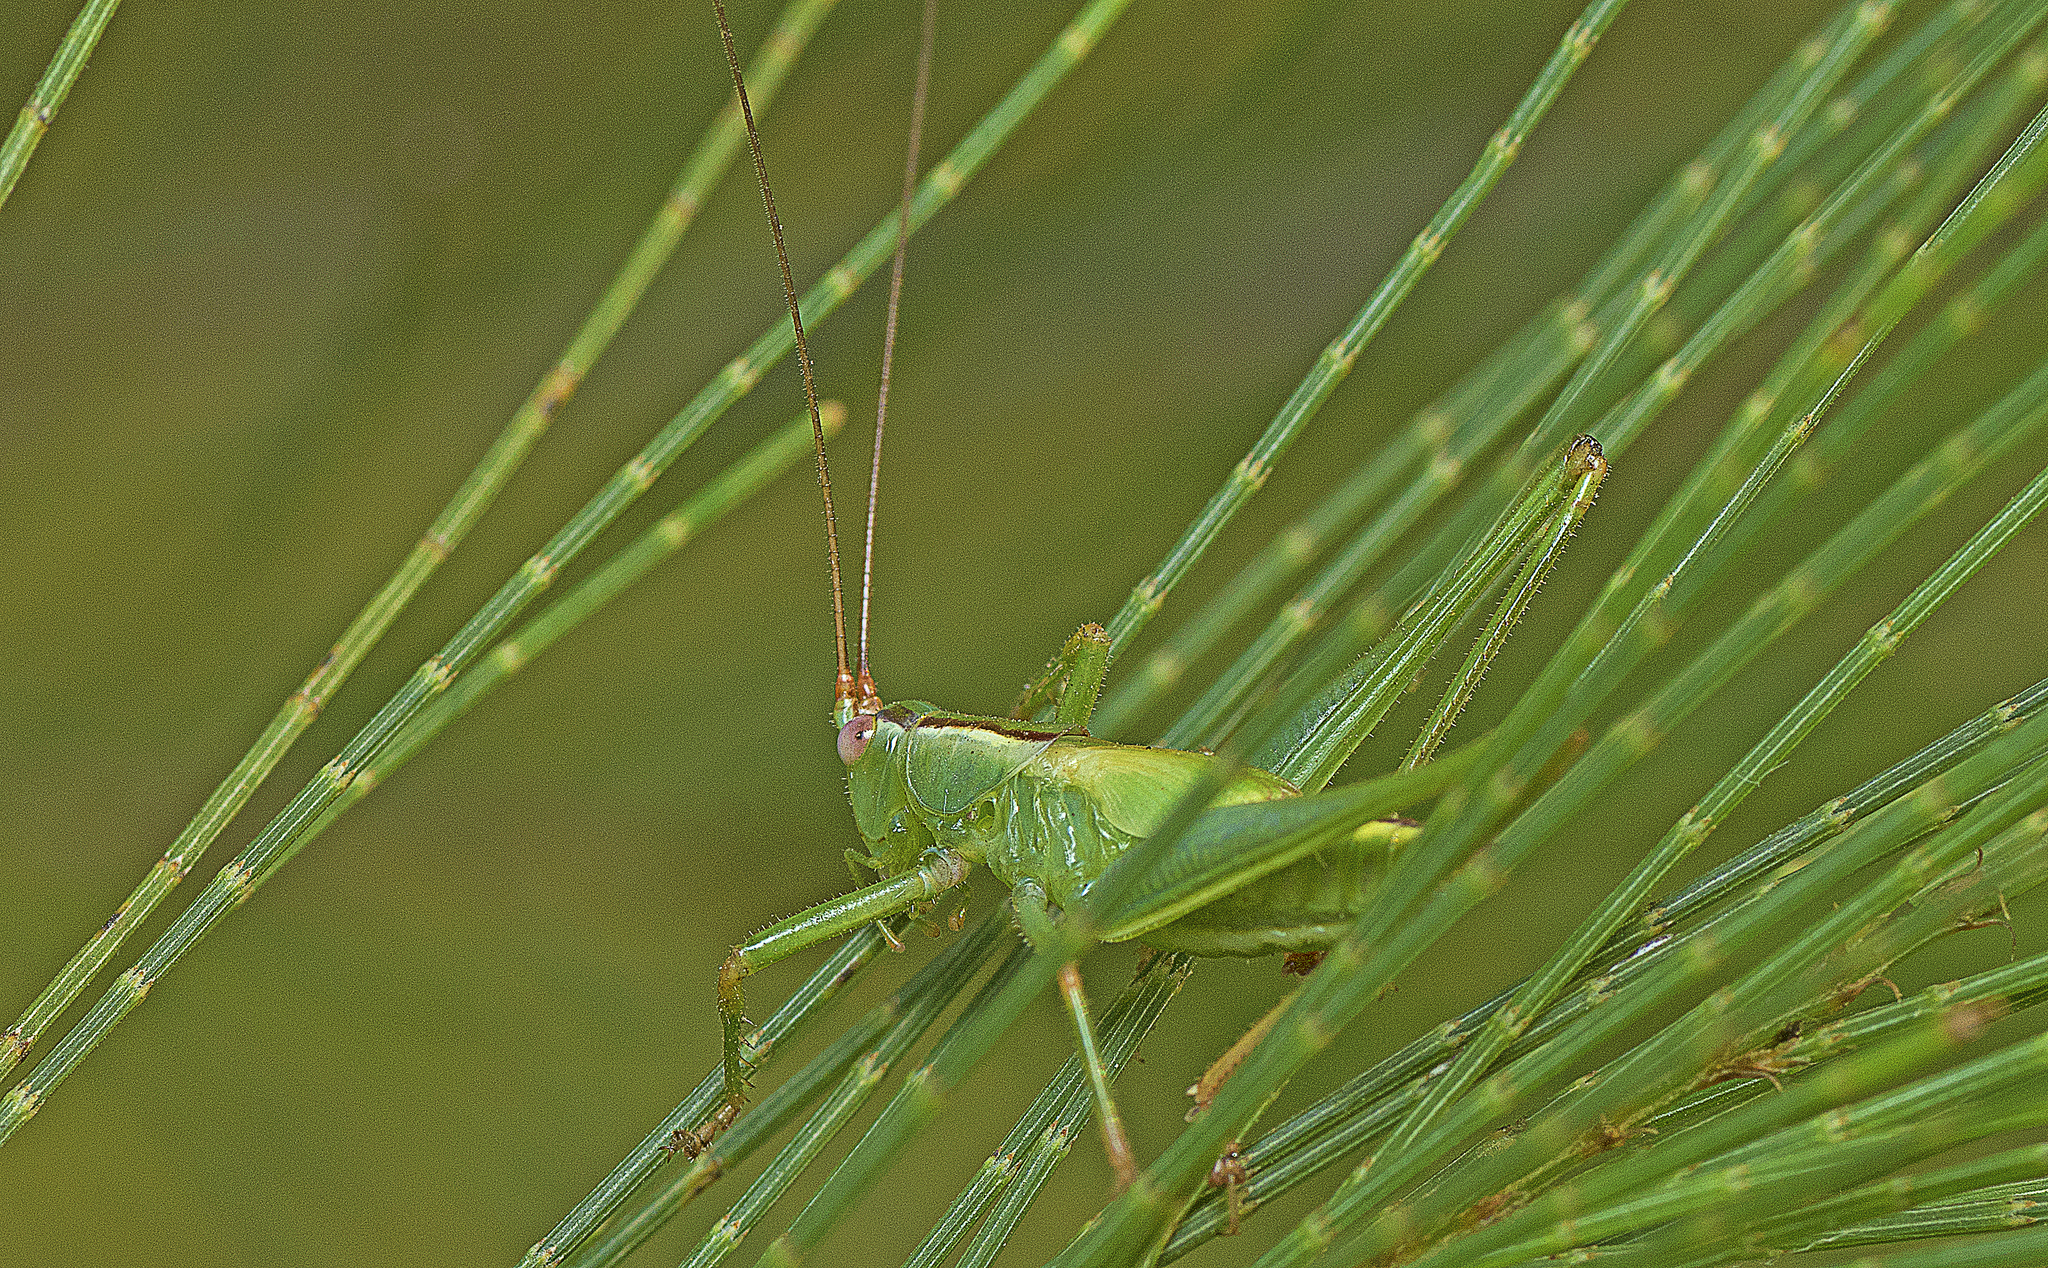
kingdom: Animalia
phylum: Arthropoda
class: Insecta
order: Orthoptera
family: Tettigoniidae
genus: Conocephalomima
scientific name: Conocephalomima barameda
